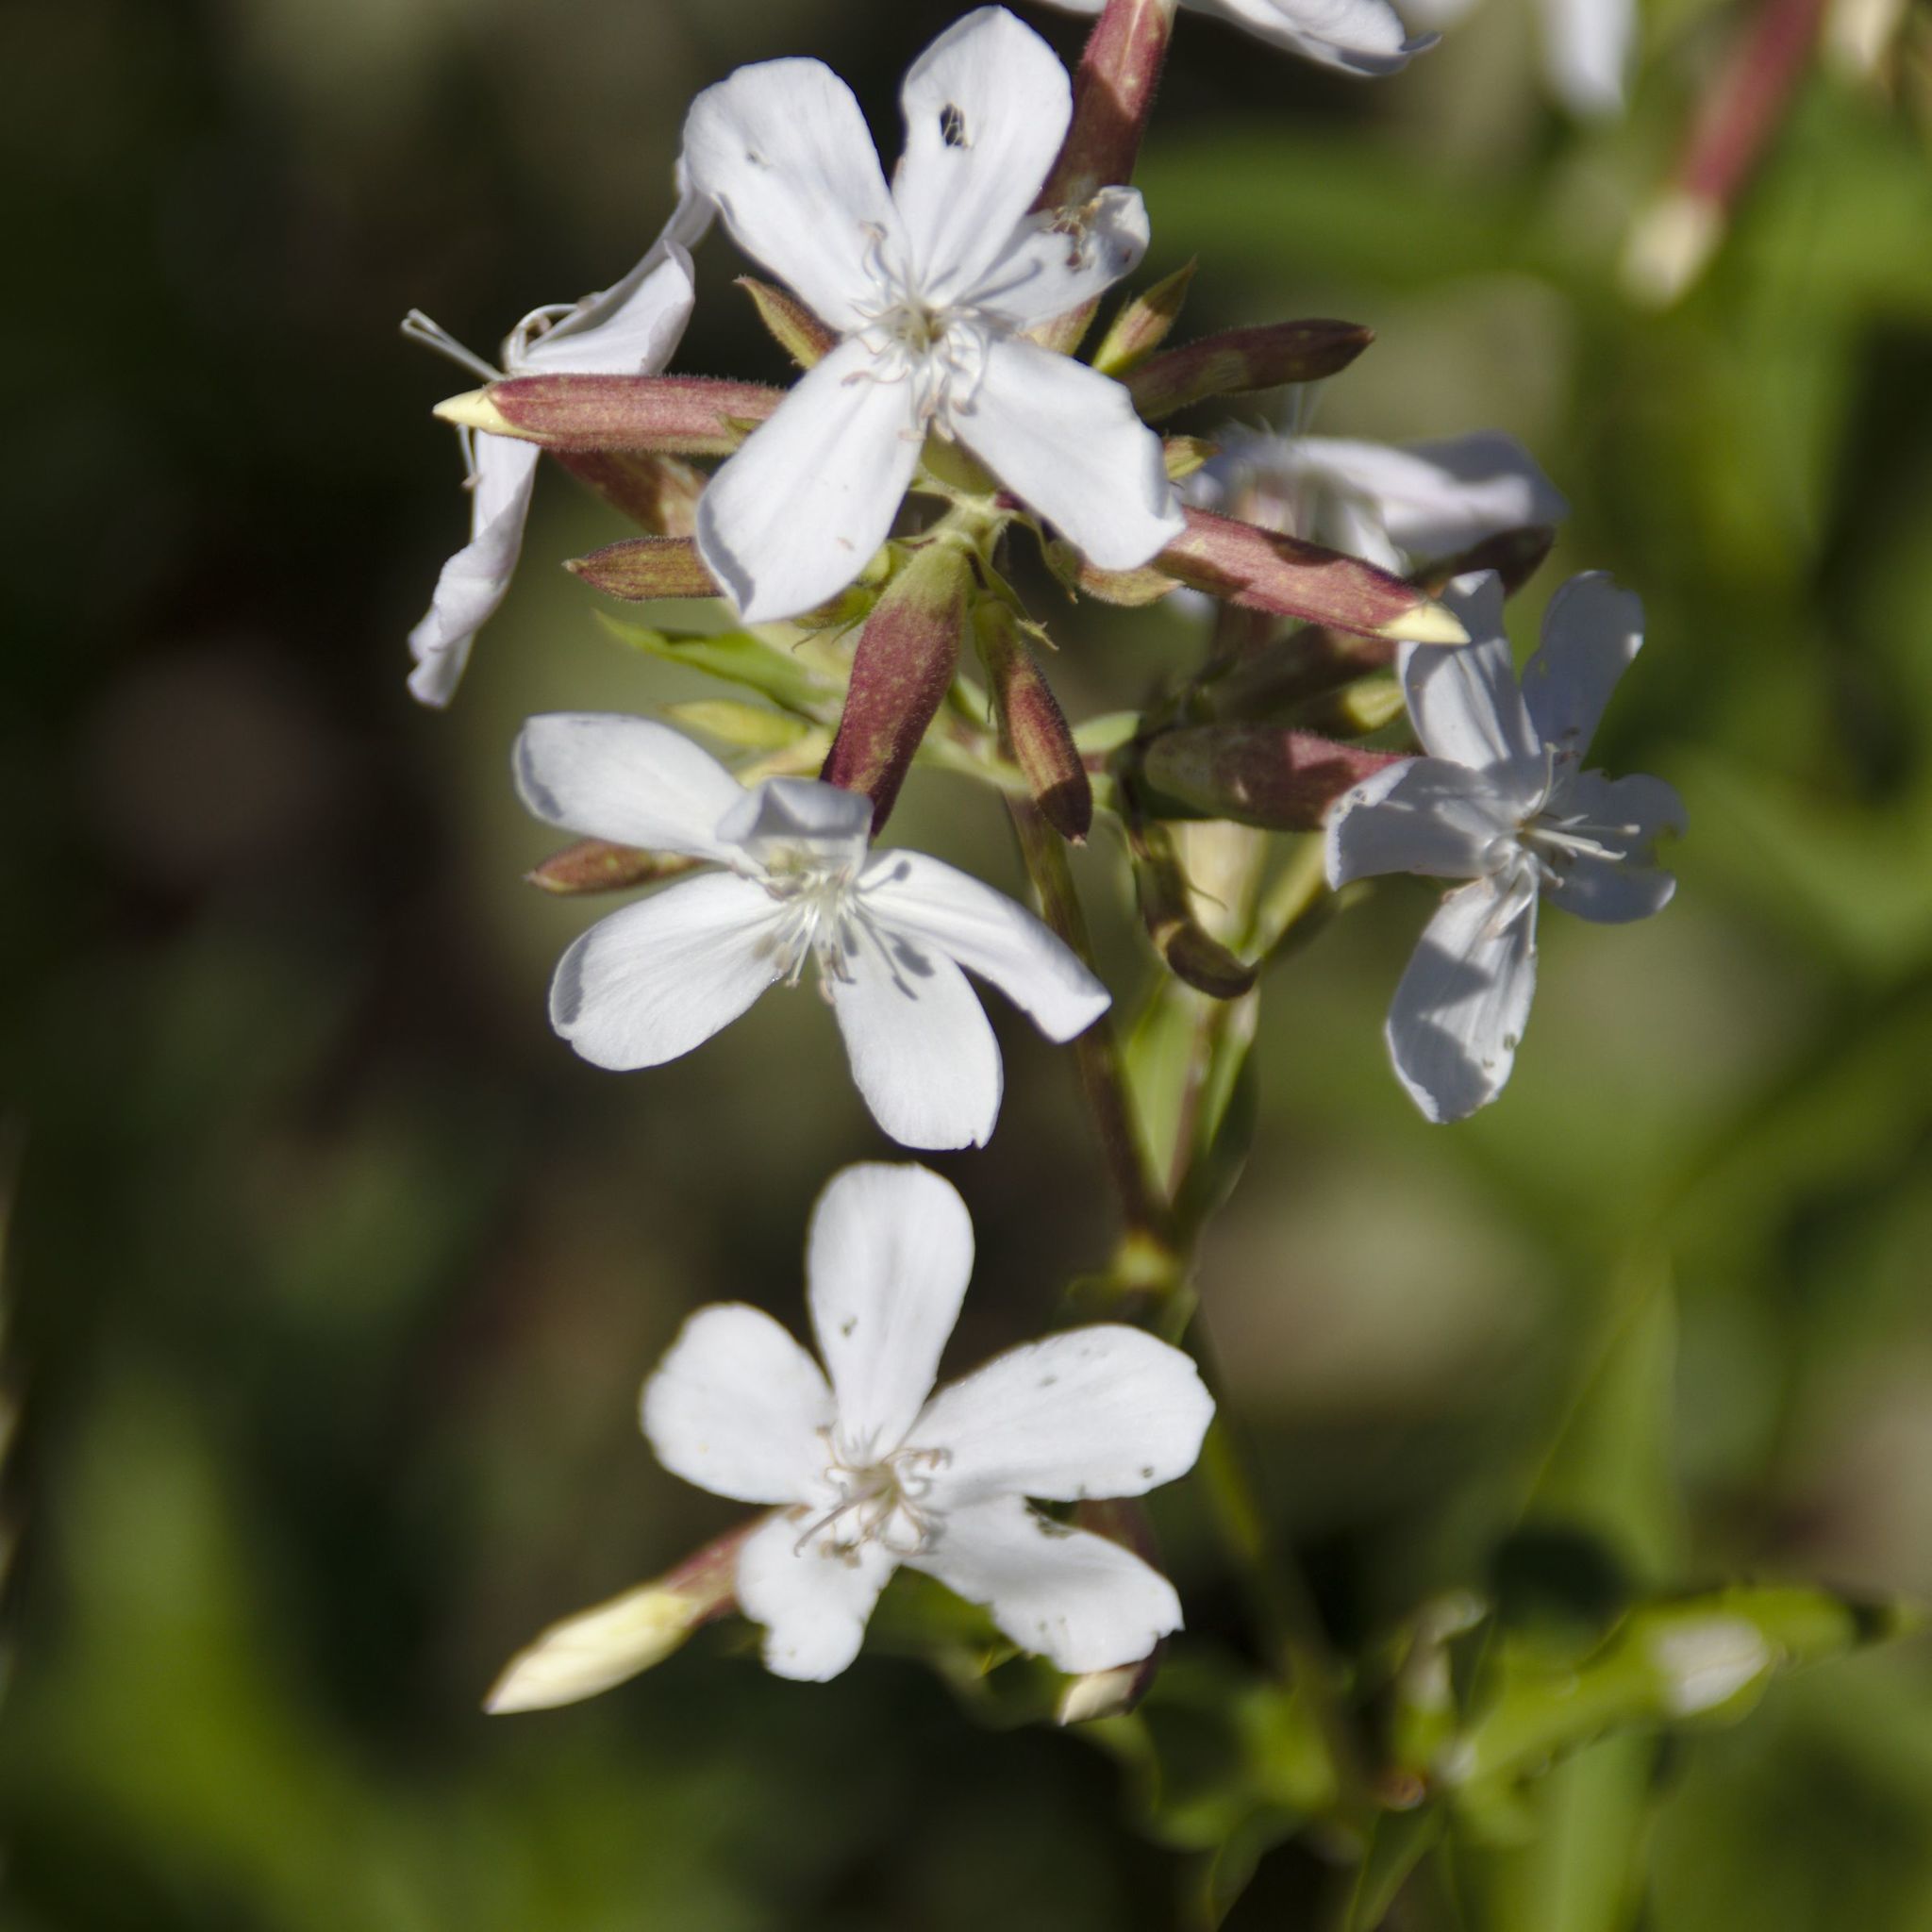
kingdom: Plantae
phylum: Tracheophyta
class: Magnoliopsida
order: Caryophyllales
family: Caryophyllaceae
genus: Saponaria
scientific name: Saponaria officinalis
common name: Soapwort
